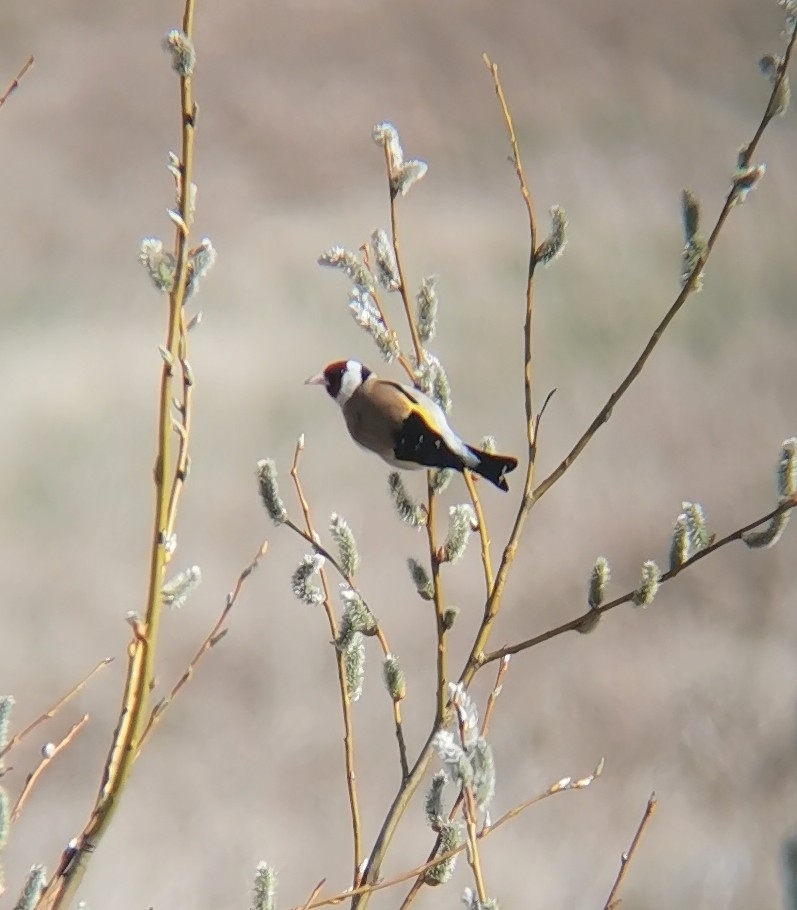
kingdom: Animalia
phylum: Chordata
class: Aves
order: Passeriformes
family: Fringillidae
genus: Carduelis
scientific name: Carduelis carduelis
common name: European goldfinch
